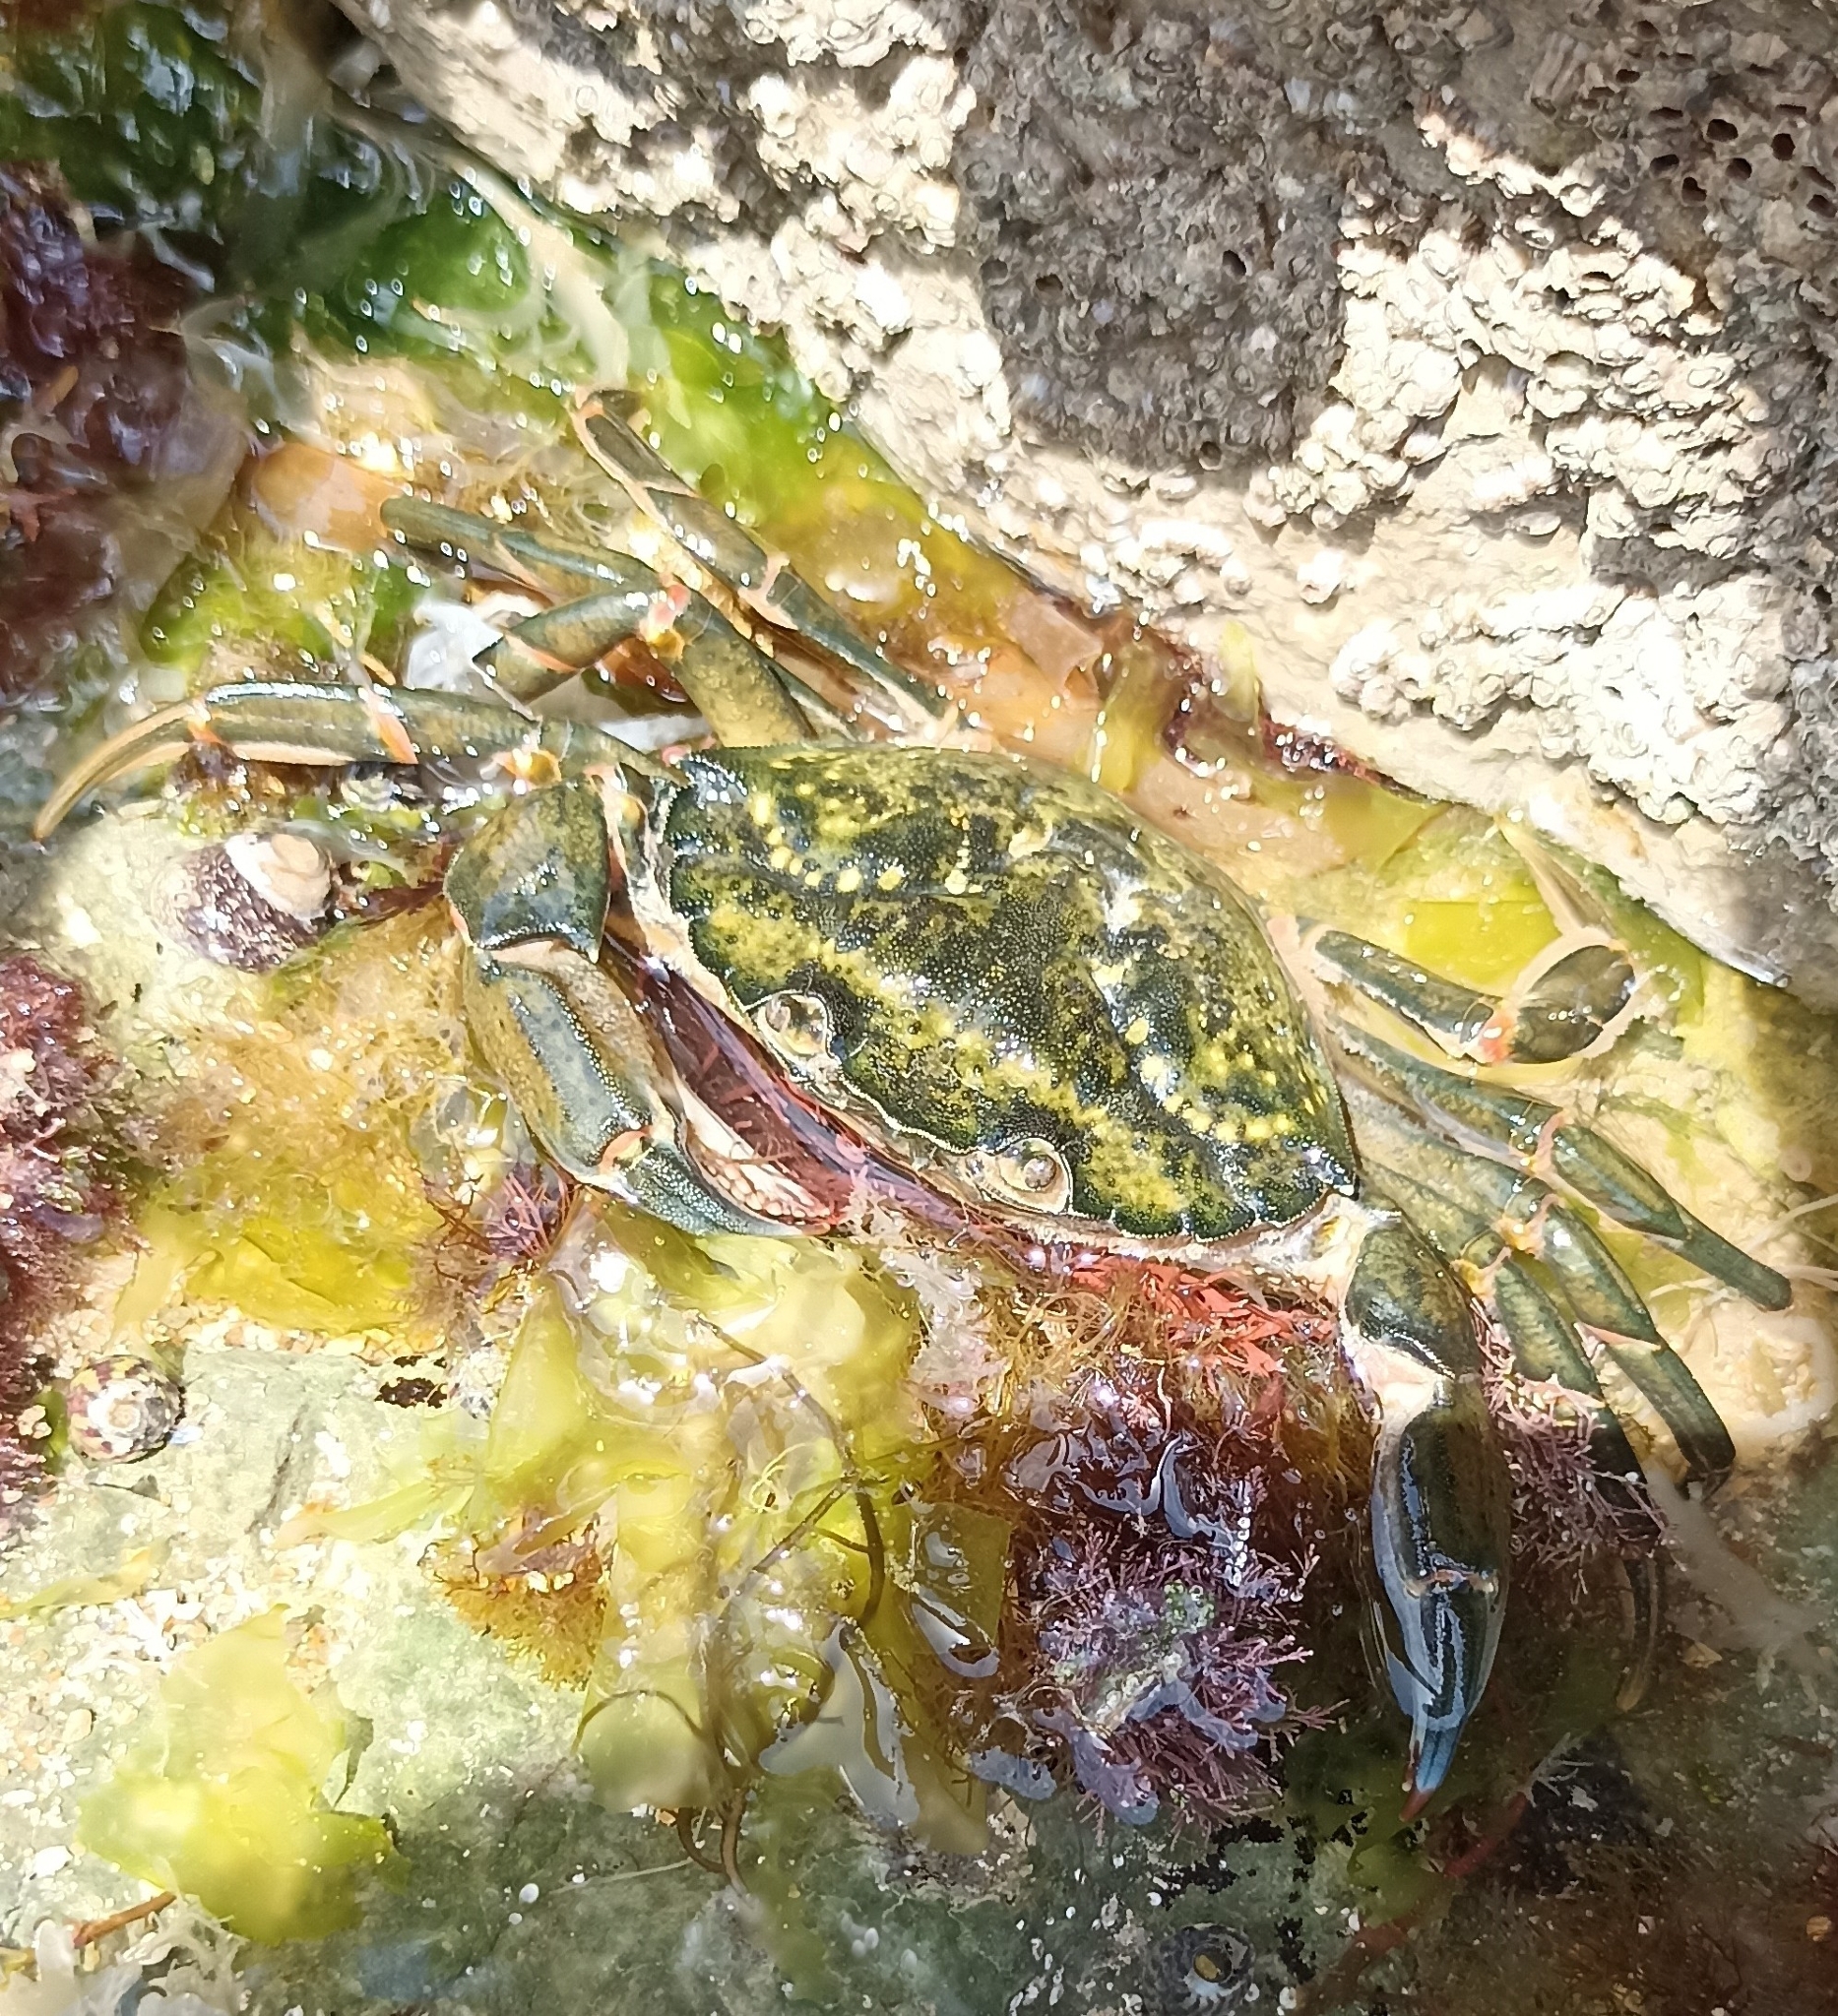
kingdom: Animalia
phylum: Arthropoda
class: Malacostraca
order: Decapoda
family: Carcinidae
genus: Carcinus
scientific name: Carcinus maenas
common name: European green crab
